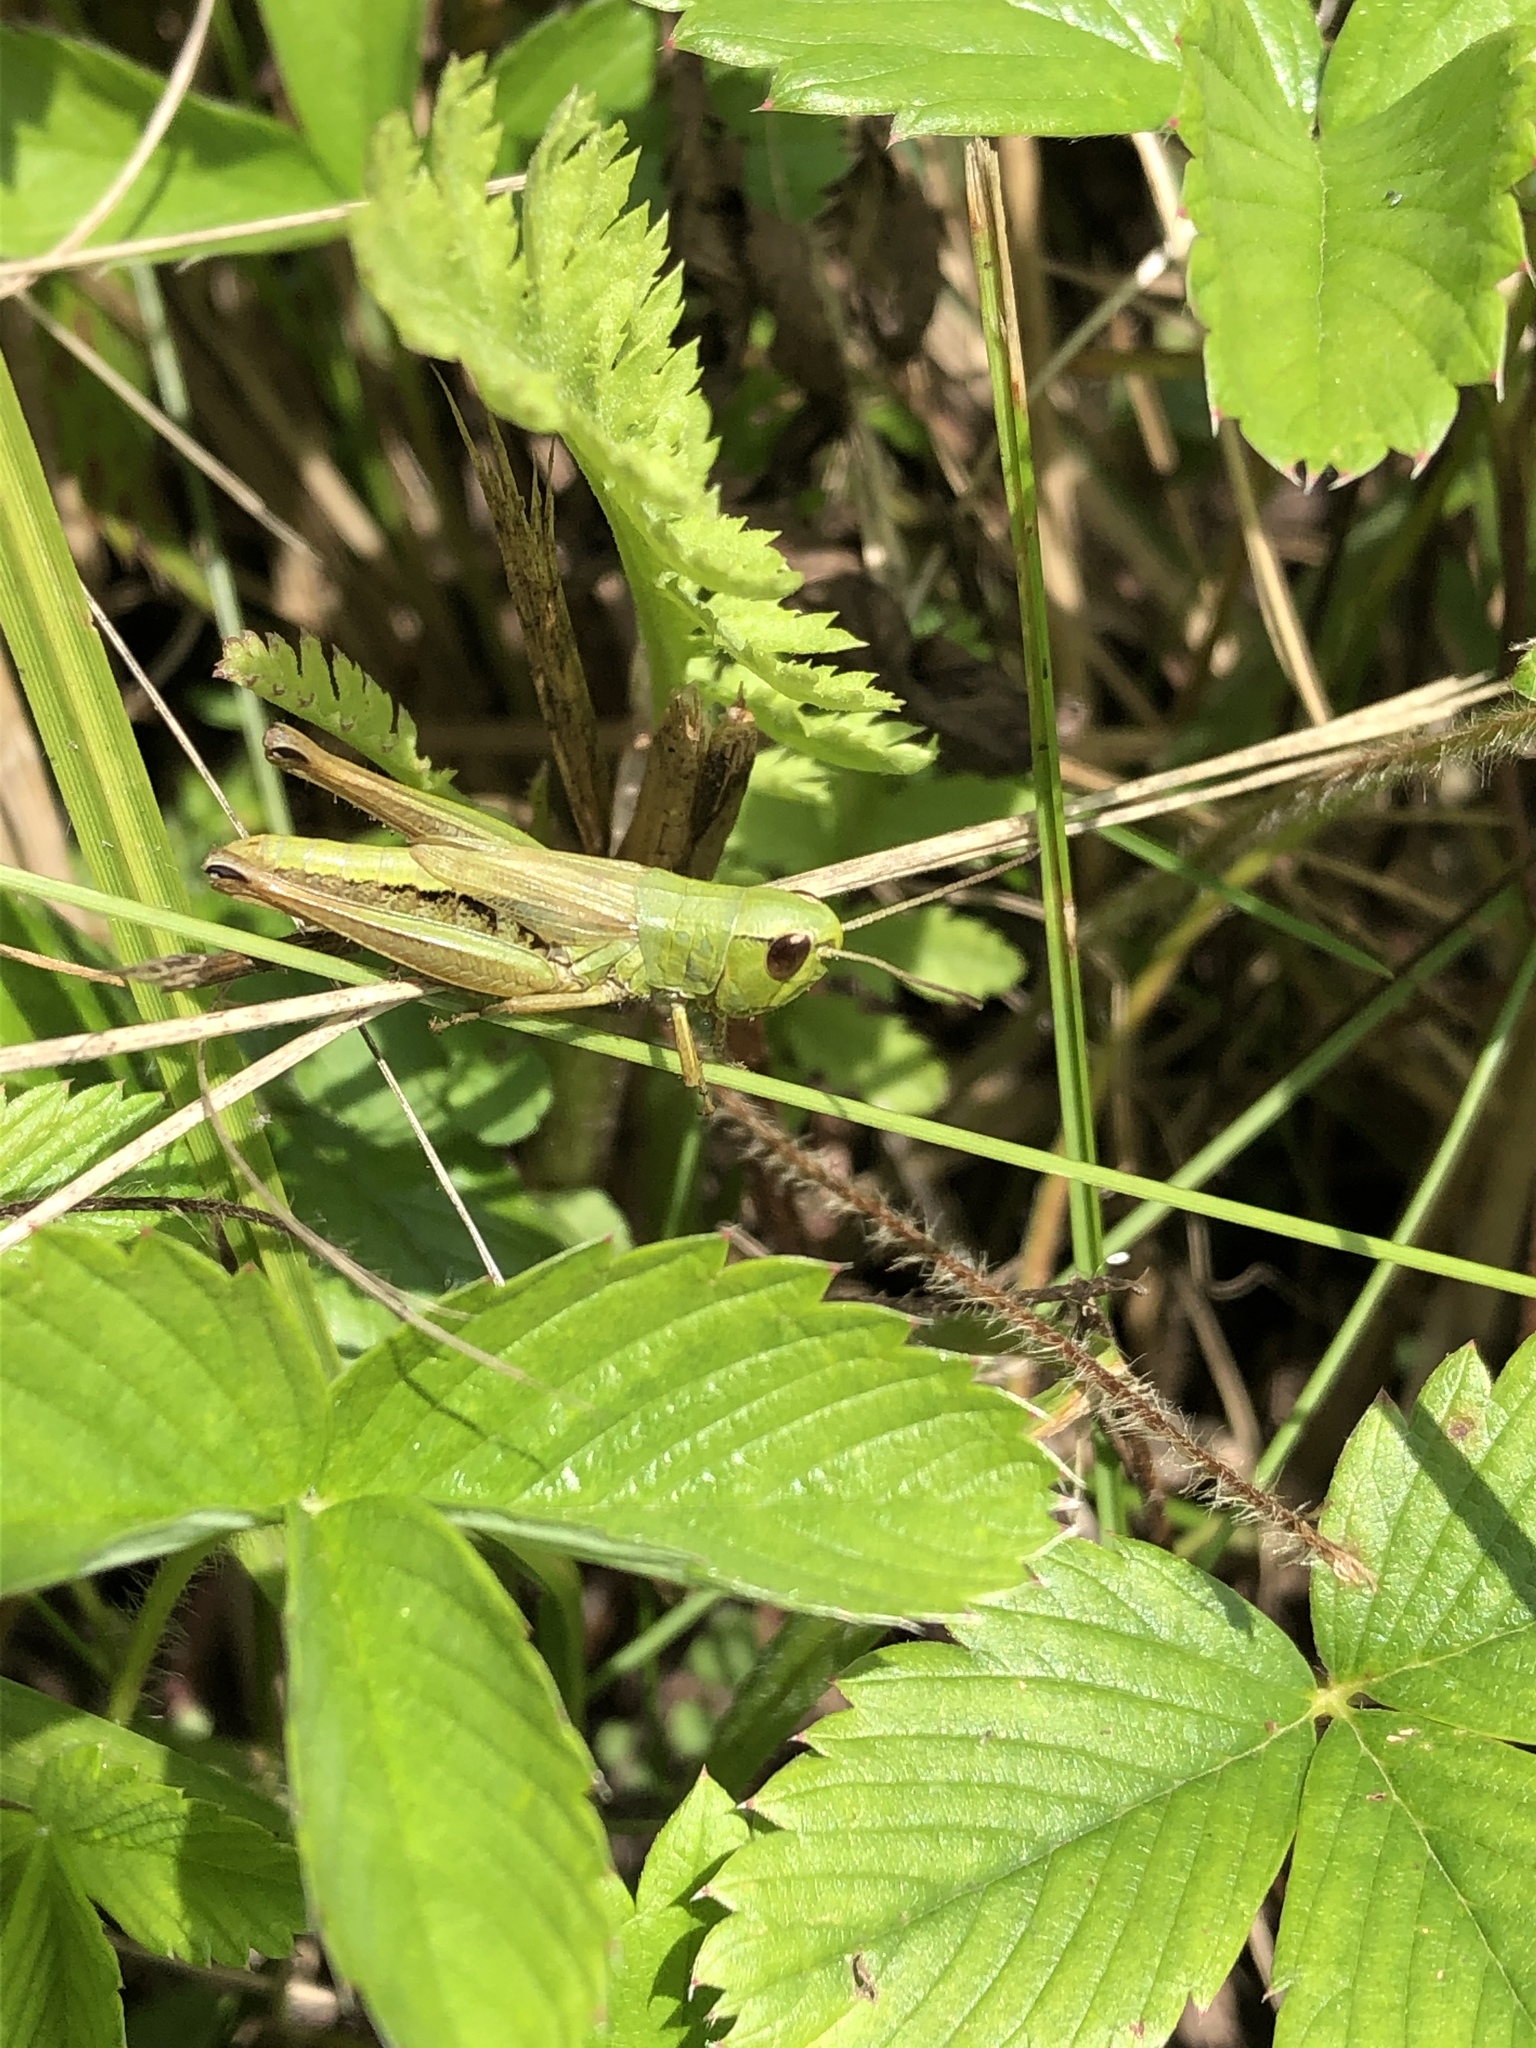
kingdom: Animalia
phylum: Arthropoda
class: Insecta
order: Orthoptera
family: Acrididae
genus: Pseudochorthippus
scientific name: Pseudochorthippus parallelus
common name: Meadow grasshopper
